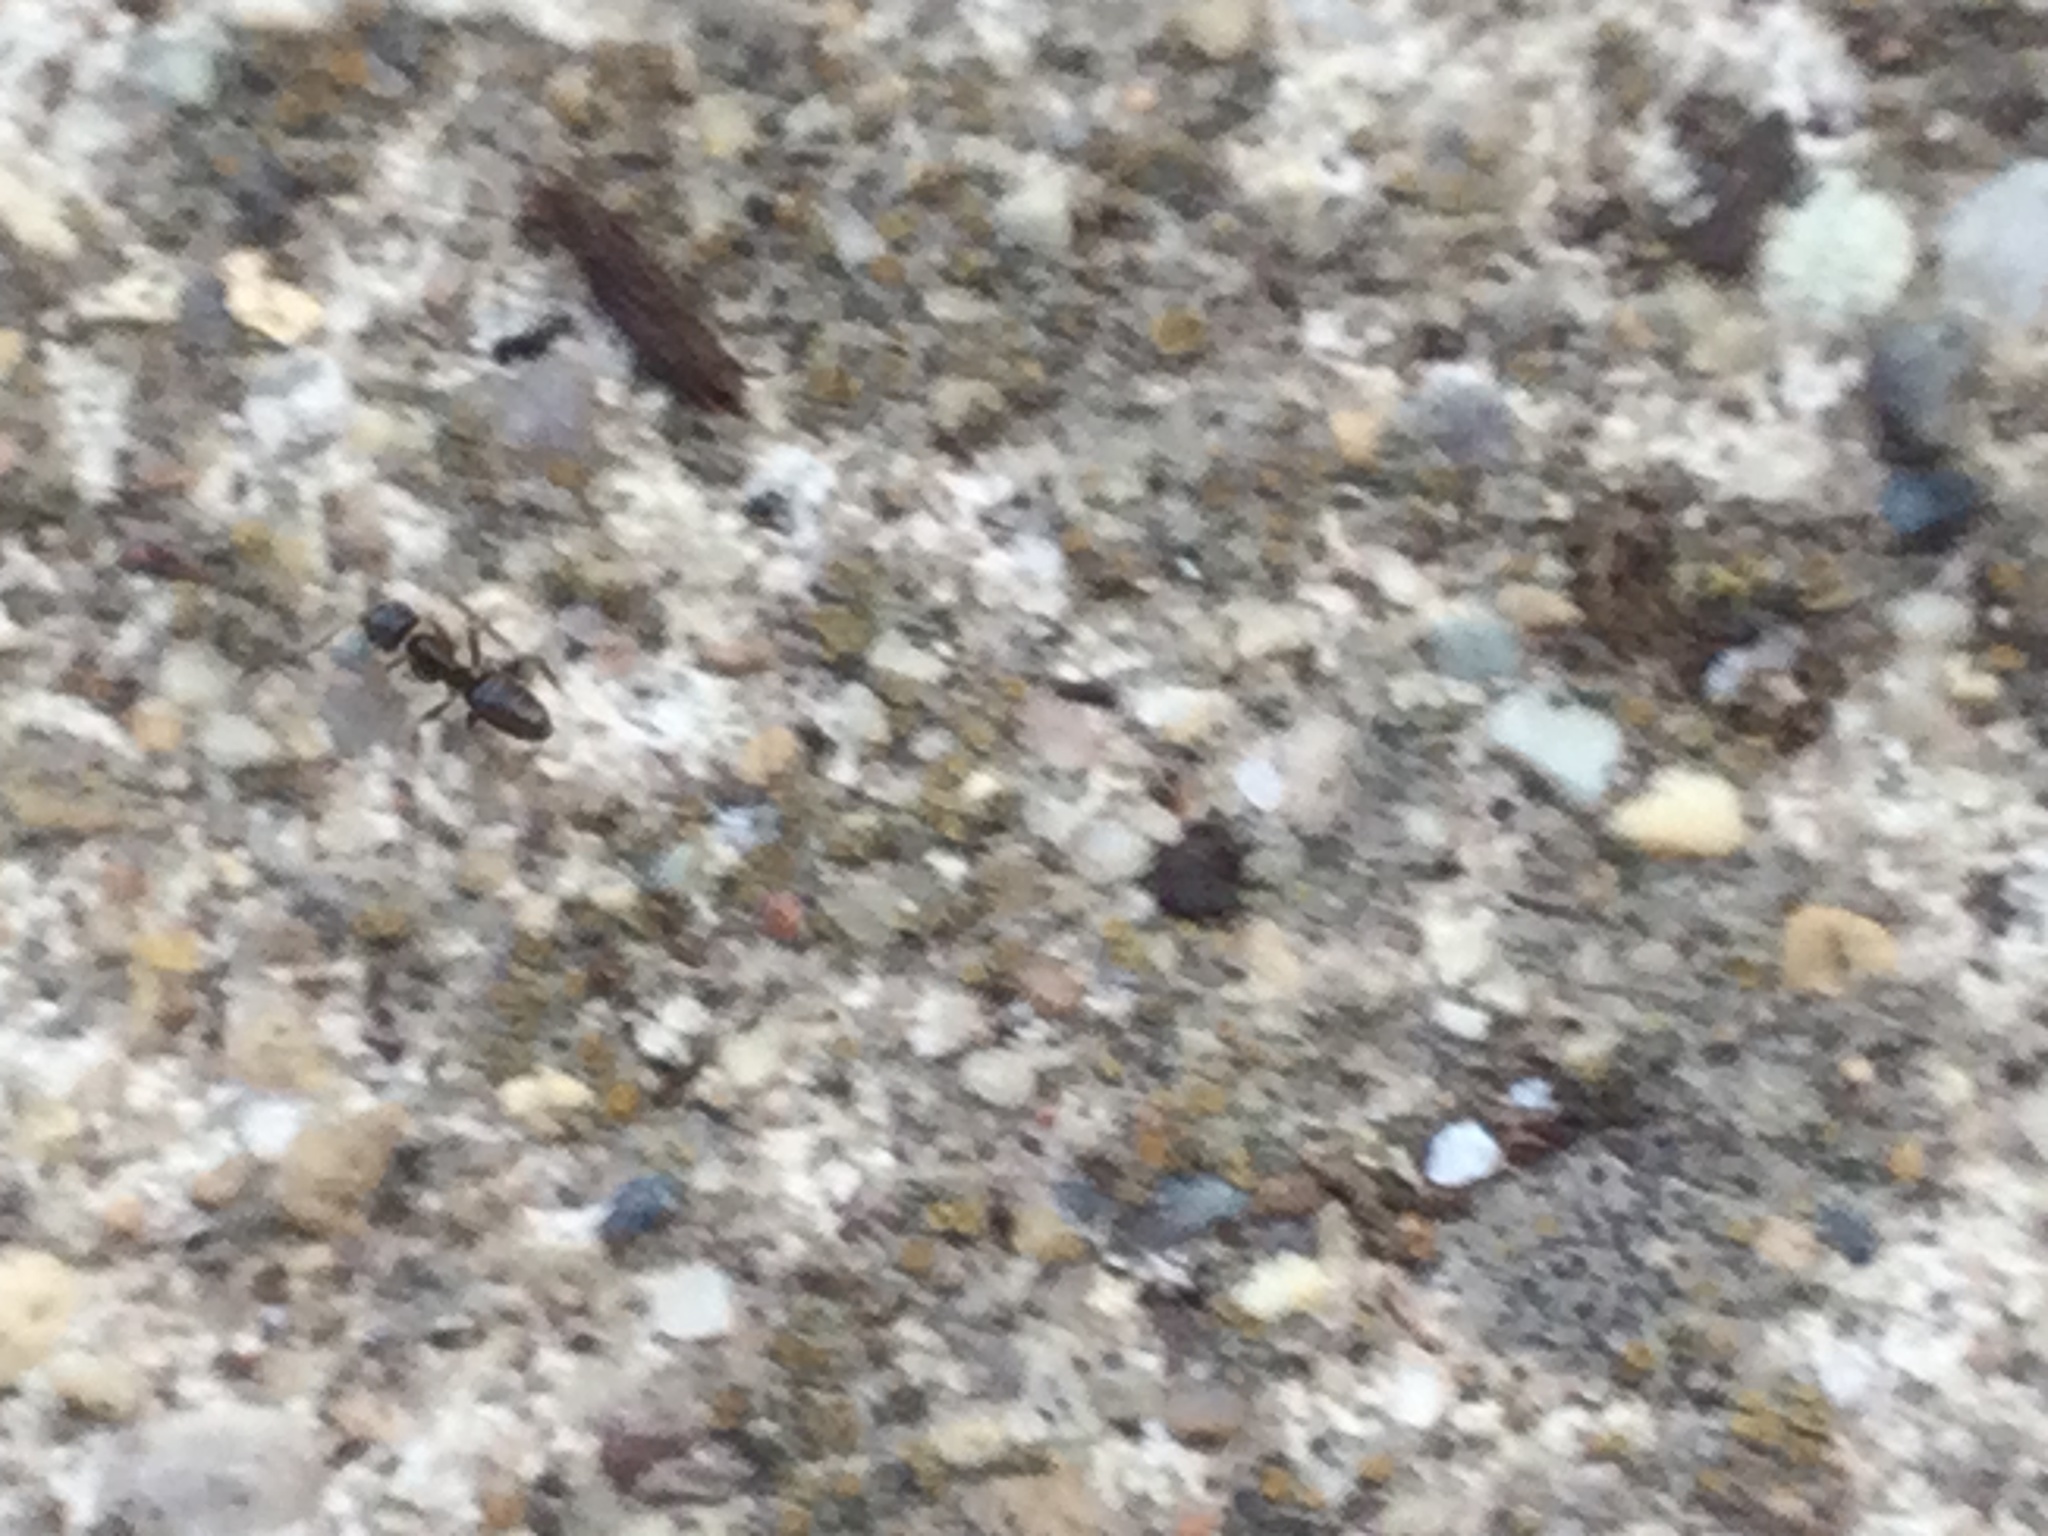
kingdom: Animalia
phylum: Arthropoda
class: Insecta
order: Hymenoptera
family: Formicidae
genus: Tapinoma
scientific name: Tapinoma sessile
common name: Odorous house ant
